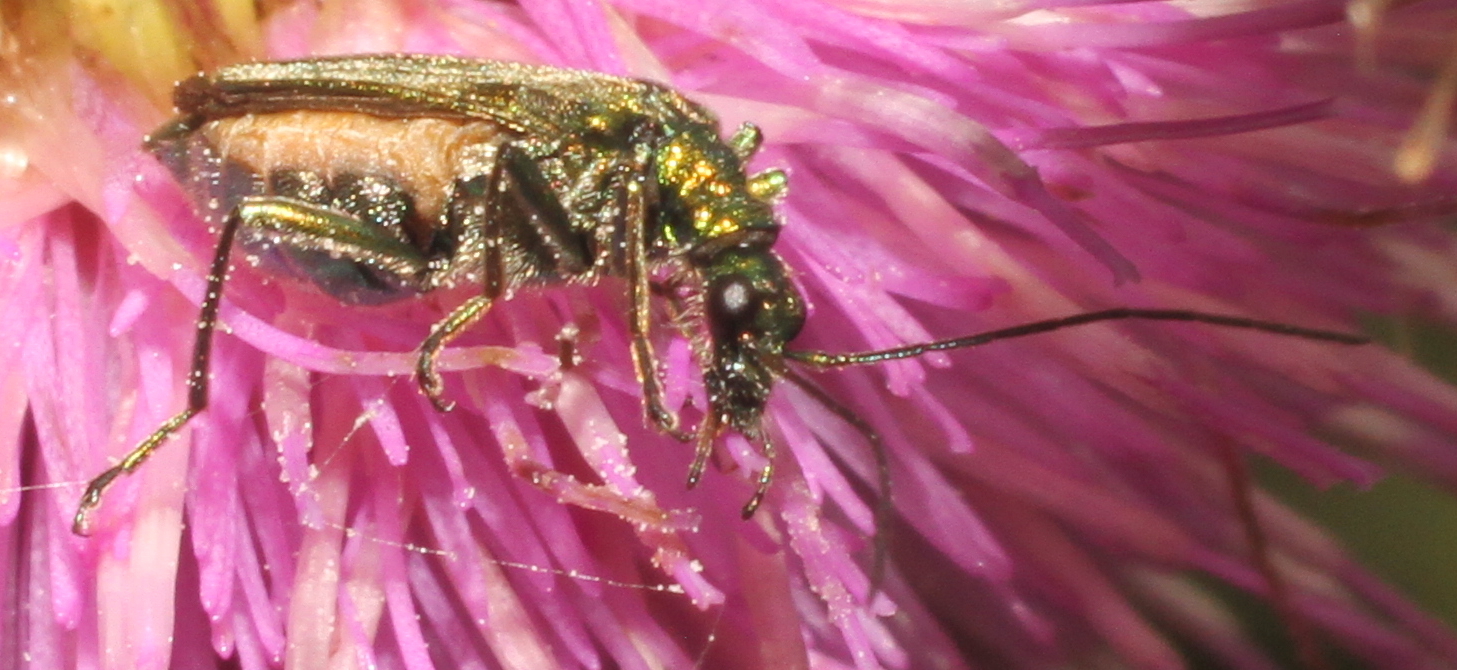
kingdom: Animalia
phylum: Arthropoda
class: Insecta
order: Coleoptera
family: Oedemeridae
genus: Oedemera
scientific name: Oedemera nobilis
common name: Swollen-thighed beetle
